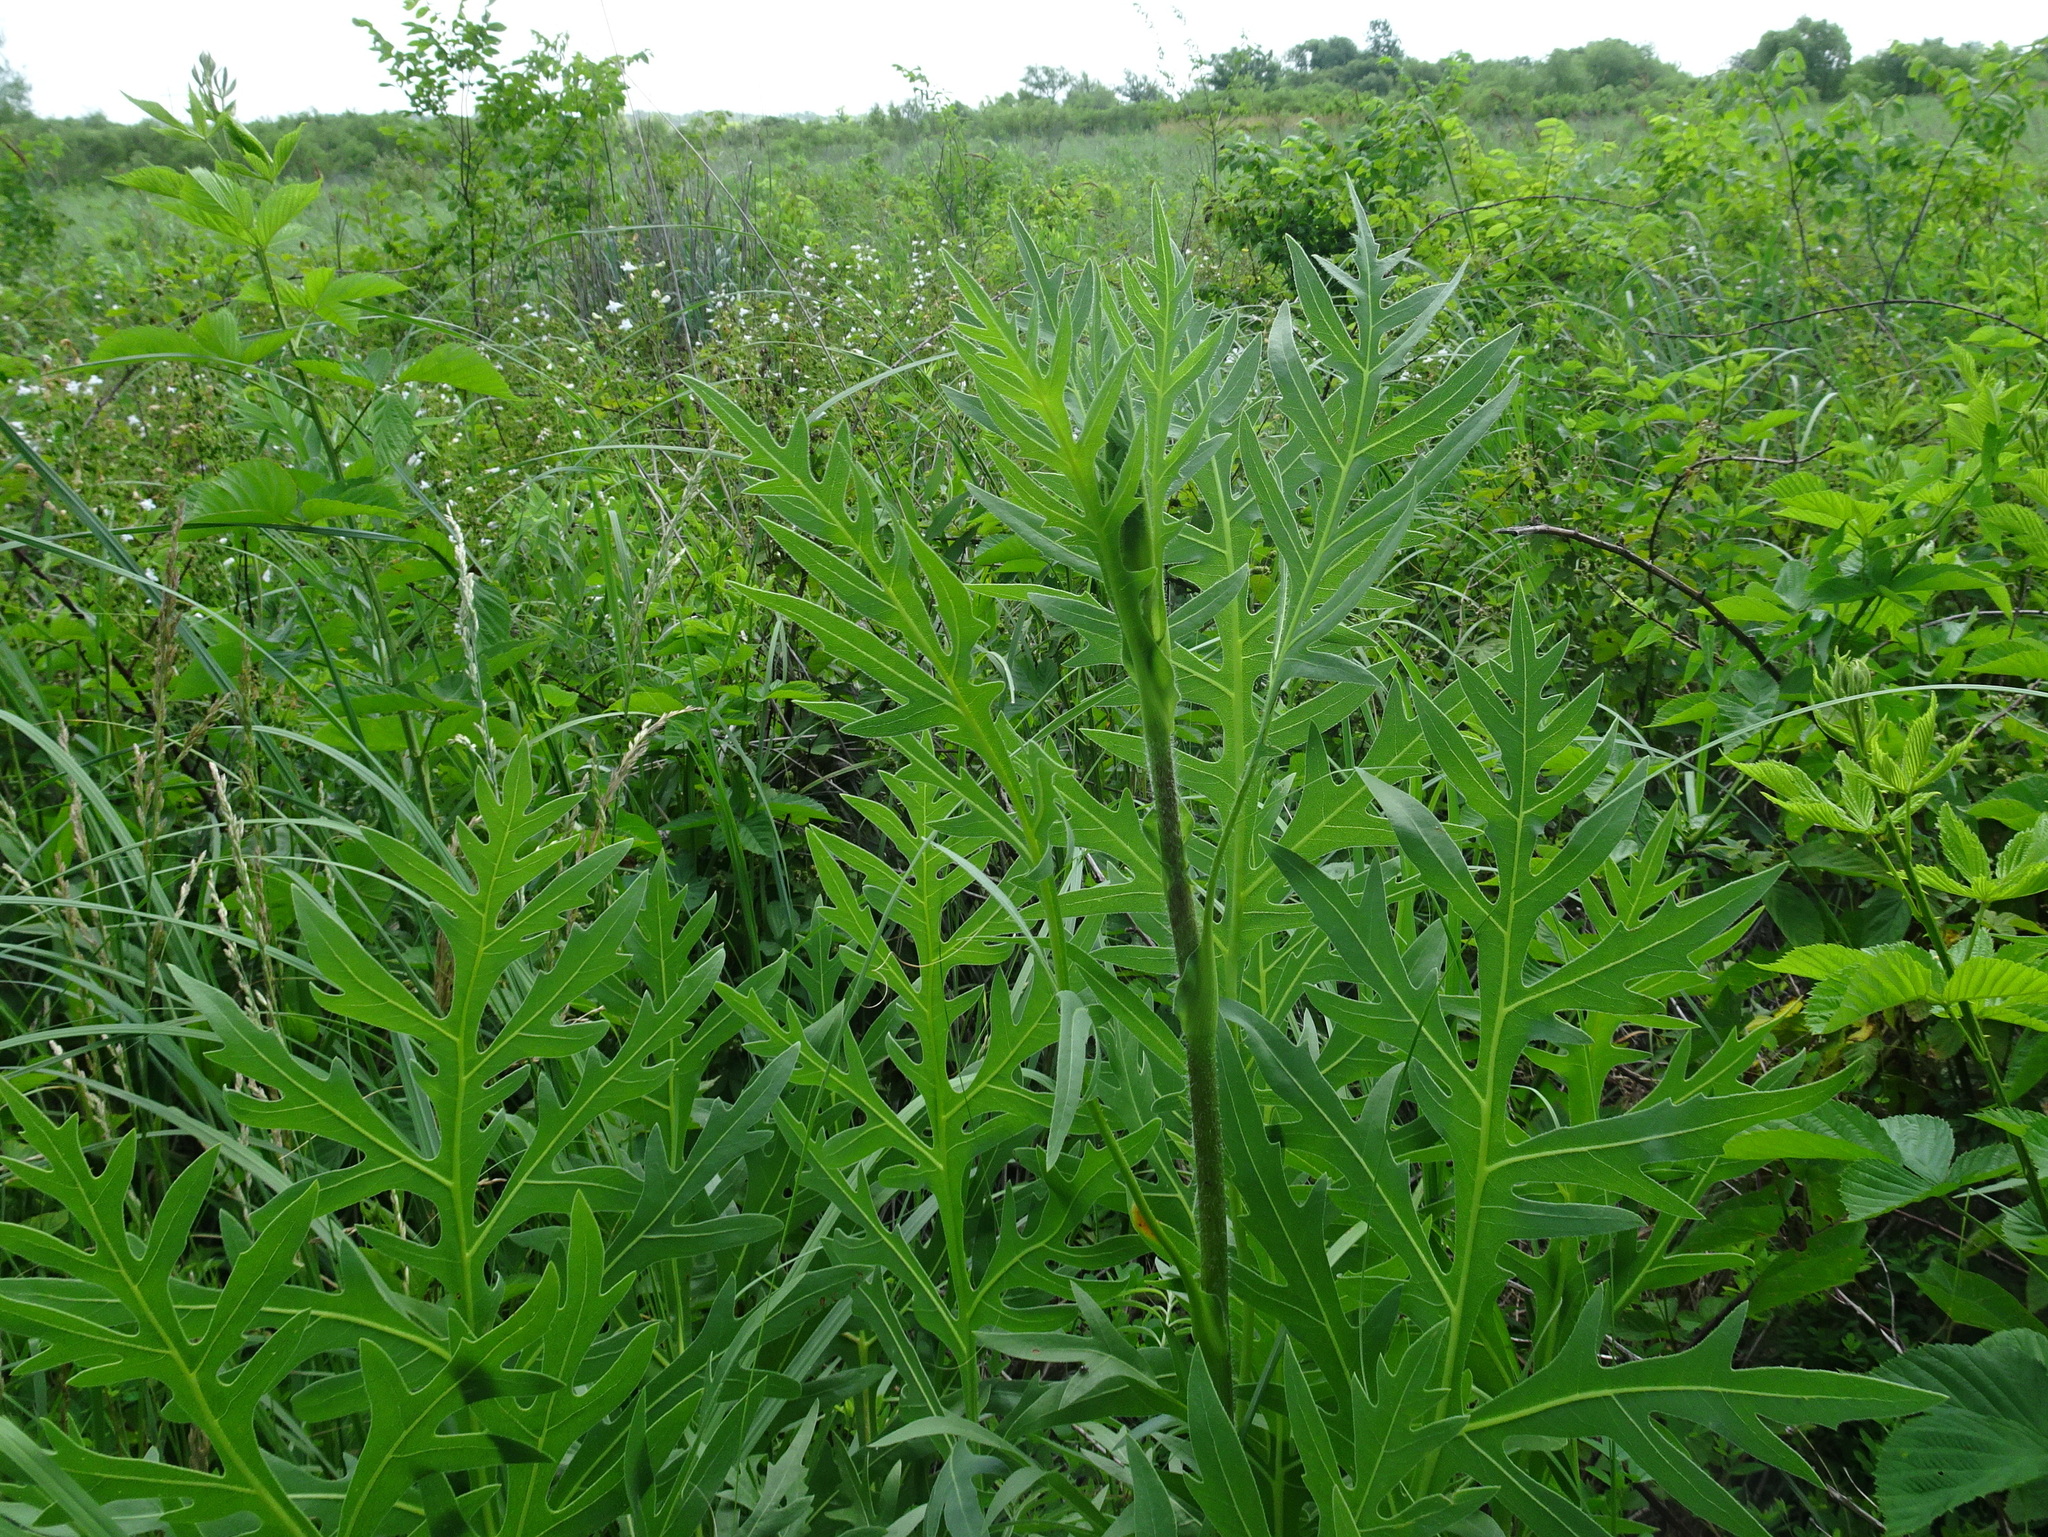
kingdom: Plantae
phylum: Tracheophyta
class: Magnoliopsida
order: Asterales
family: Asteraceae
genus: Silphium
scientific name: Silphium laciniatum
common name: Polarplant
